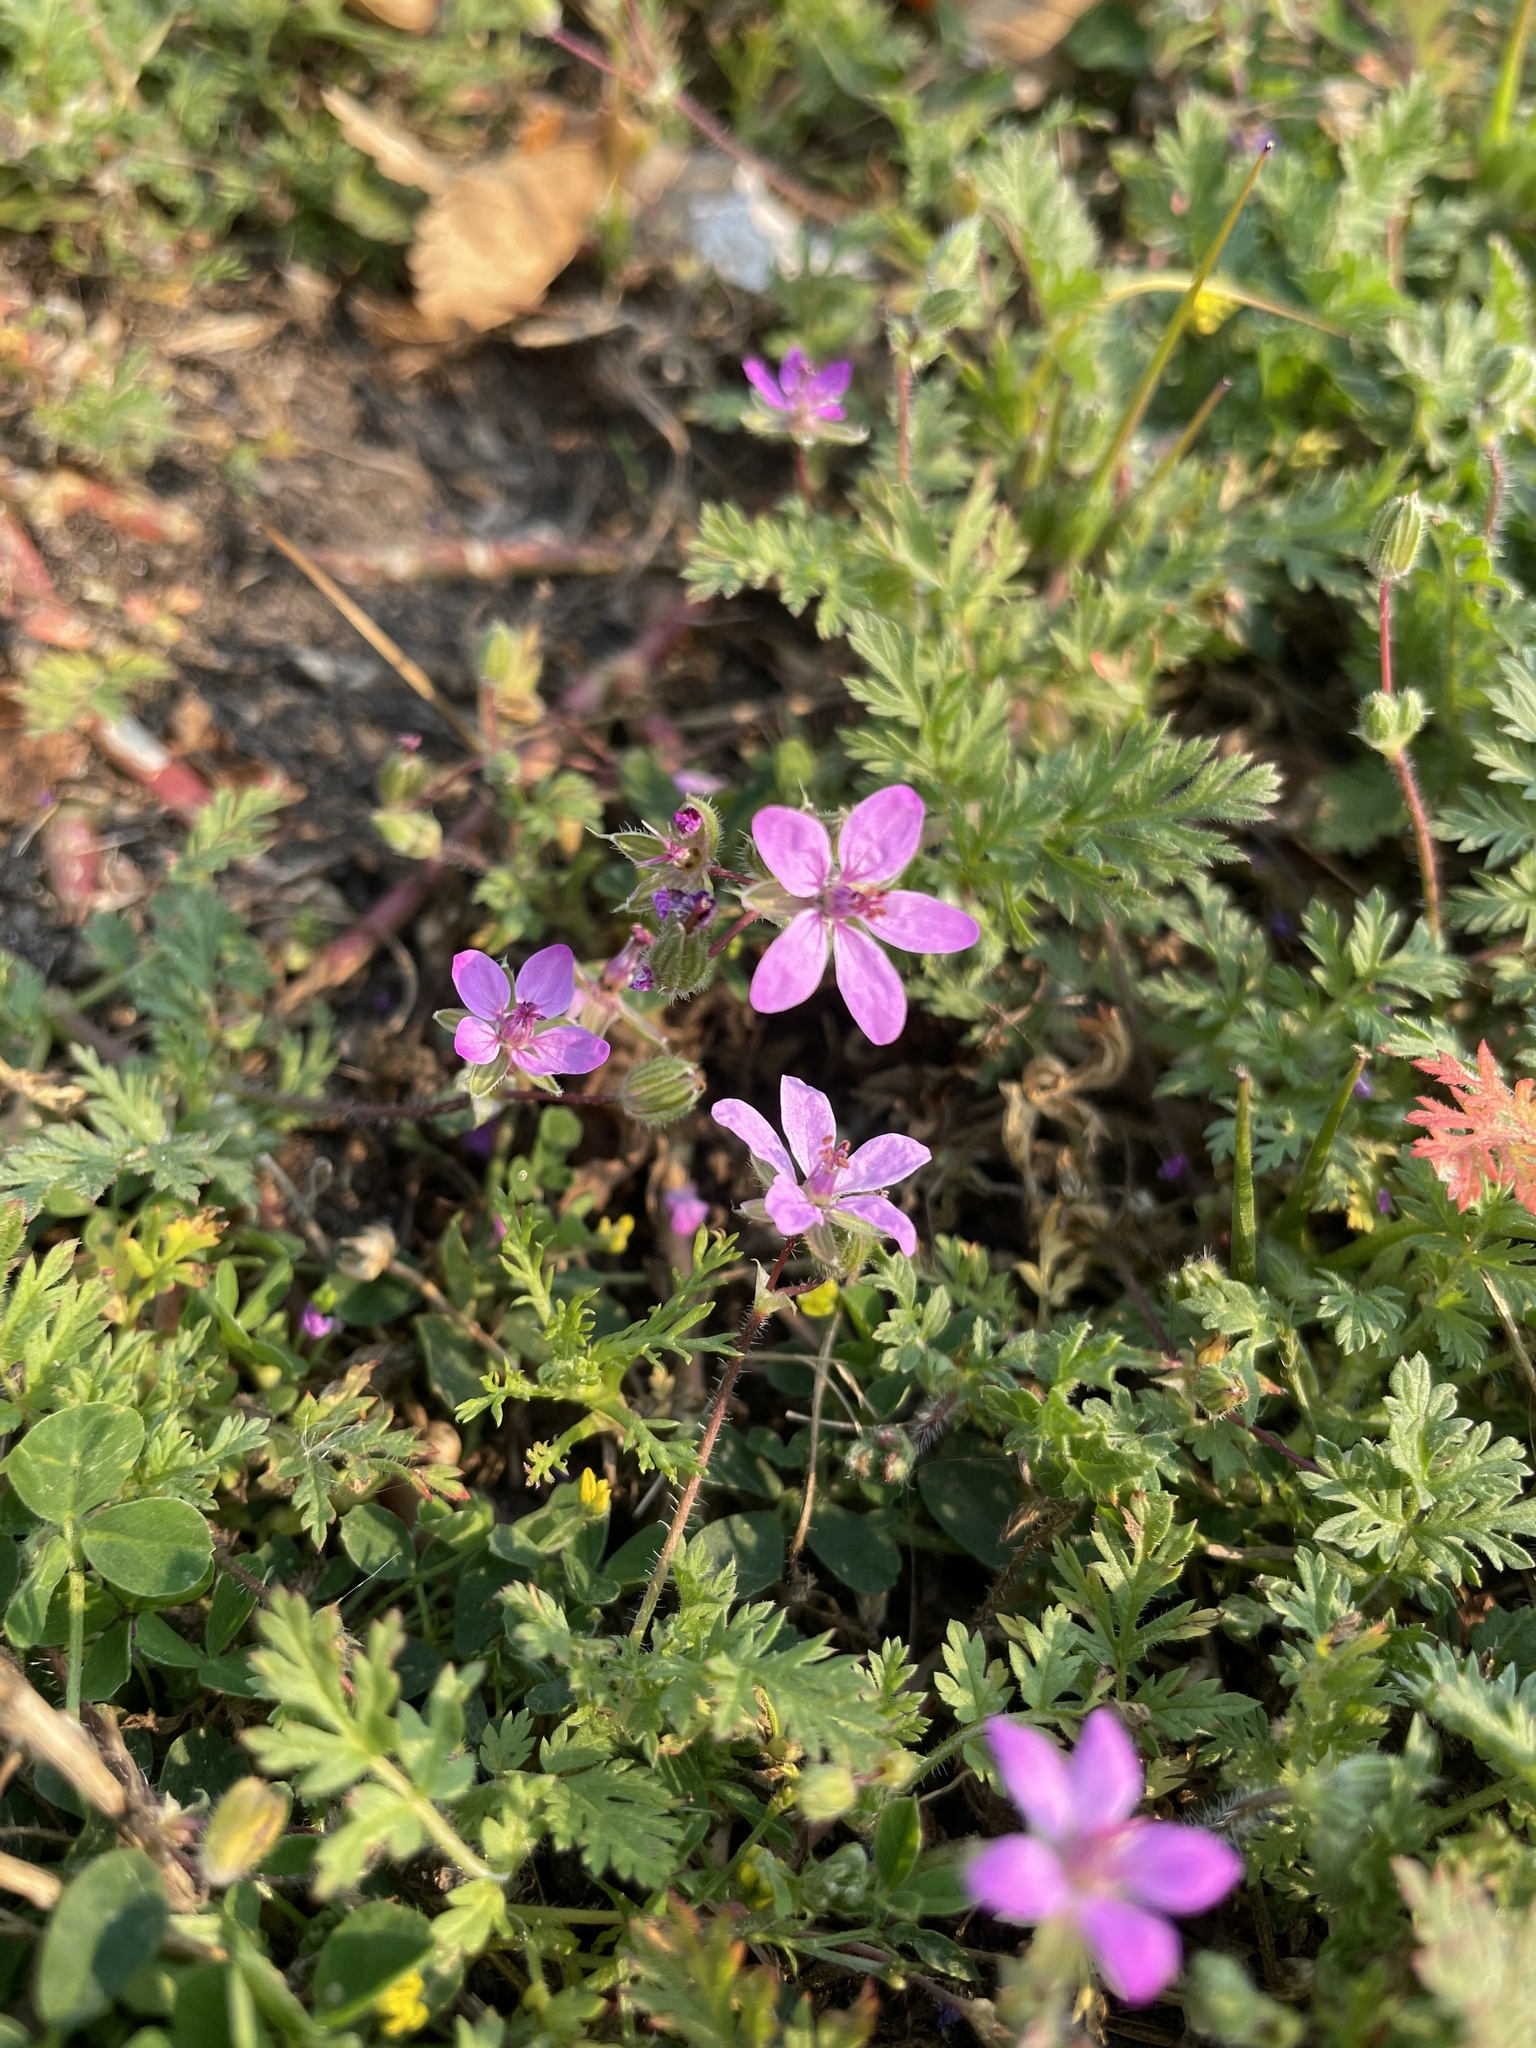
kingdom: Plantae
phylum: Tracheophyta
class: Magnoliopsida
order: Geraniales
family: Geraniaceae
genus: Erodium
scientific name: Erodium cicutarium
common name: Common stork's-bill
